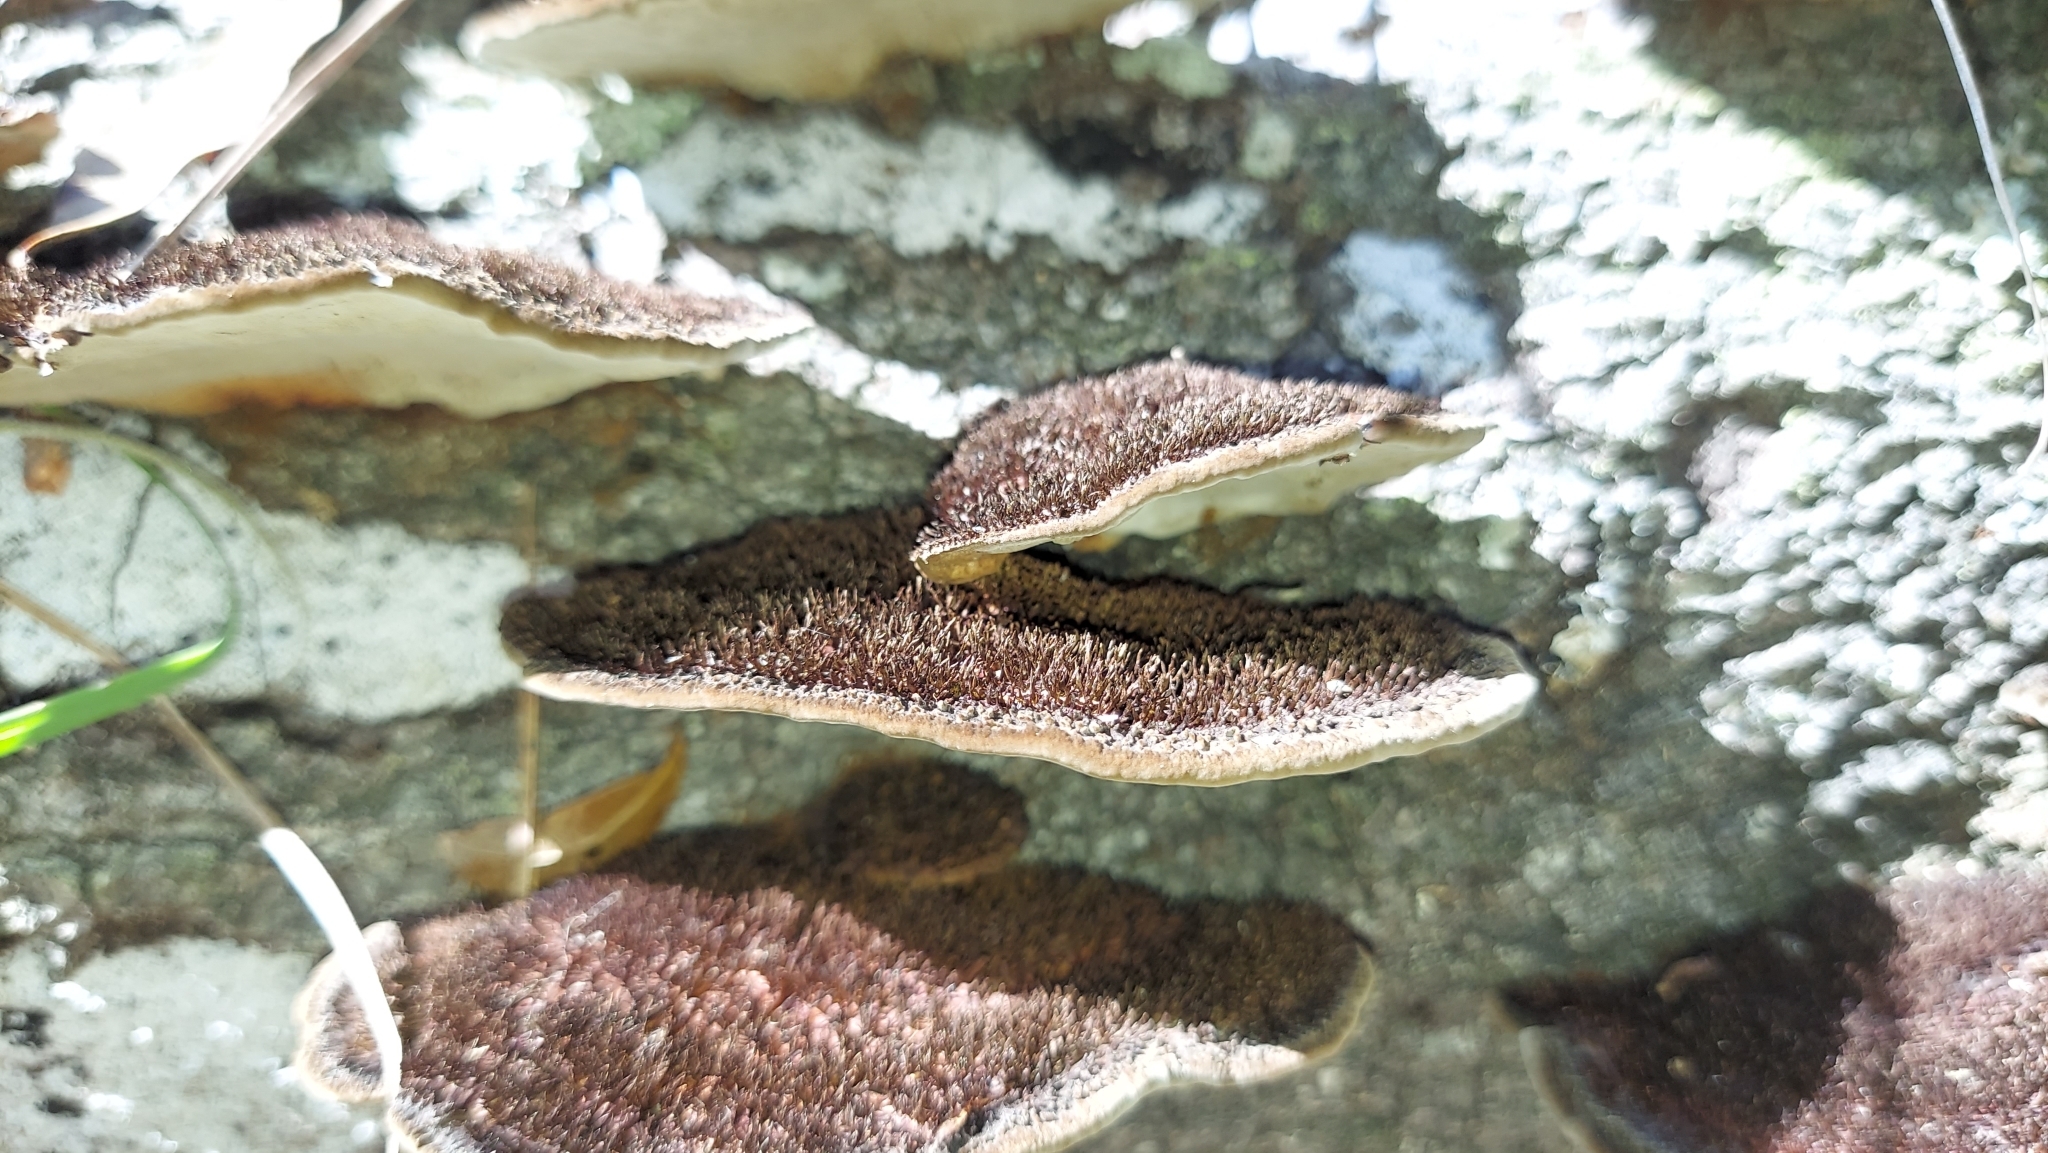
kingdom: Fungi
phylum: Basidiomycota
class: Agaricomycetes
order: Polyporales
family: Cerrenaceae
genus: Cerrena
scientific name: Cerrena hydnoides
